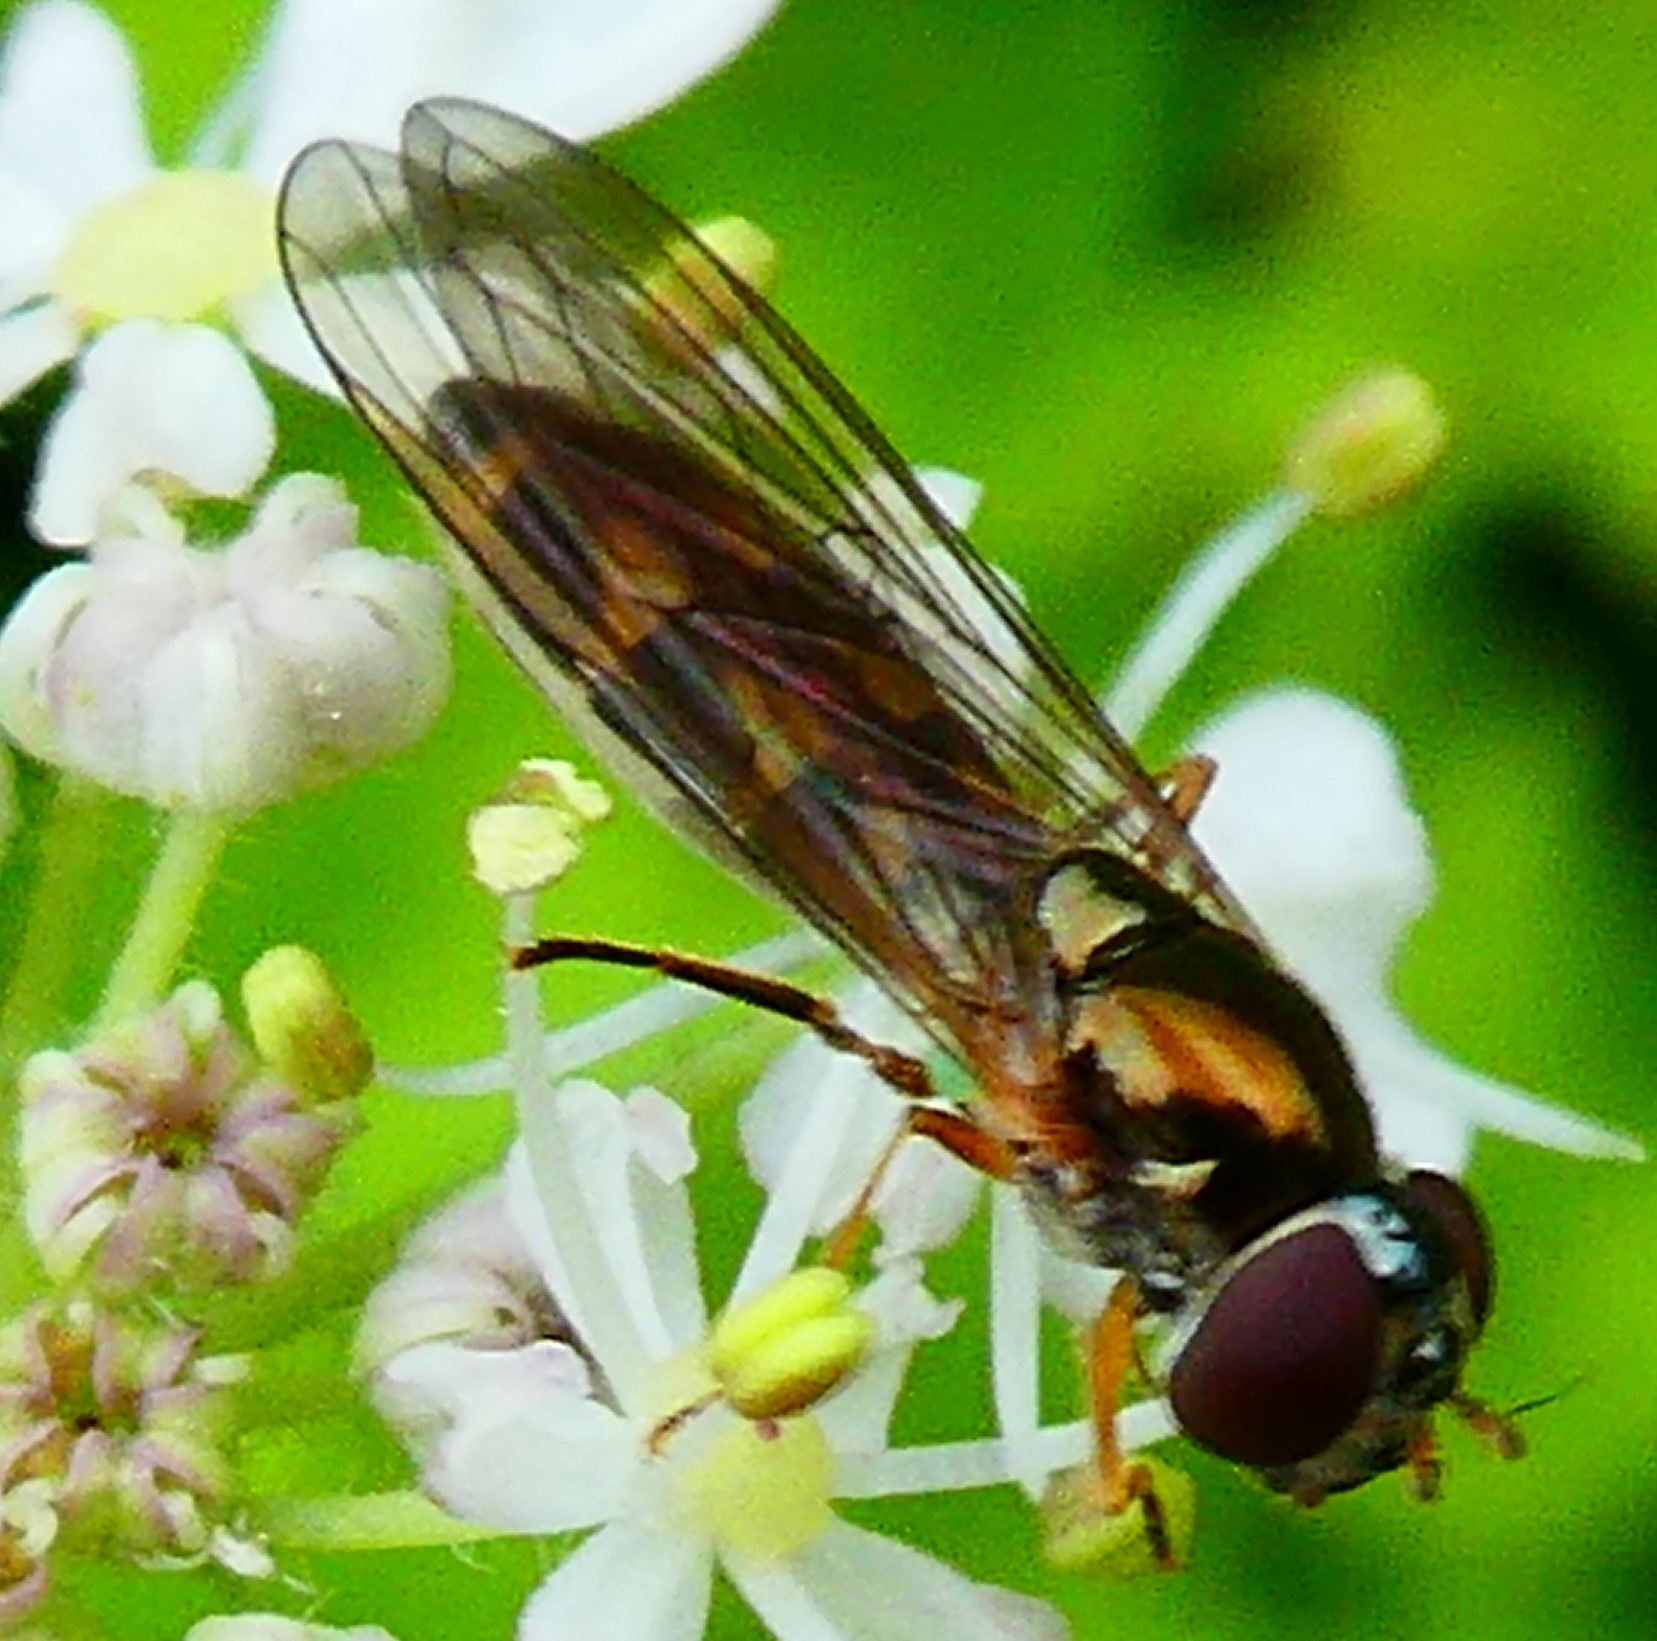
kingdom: Animalia
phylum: Arthropoda
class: Insecta
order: Diptera
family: Syrphidae
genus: Melanostoma
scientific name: Melanostoma scalare
